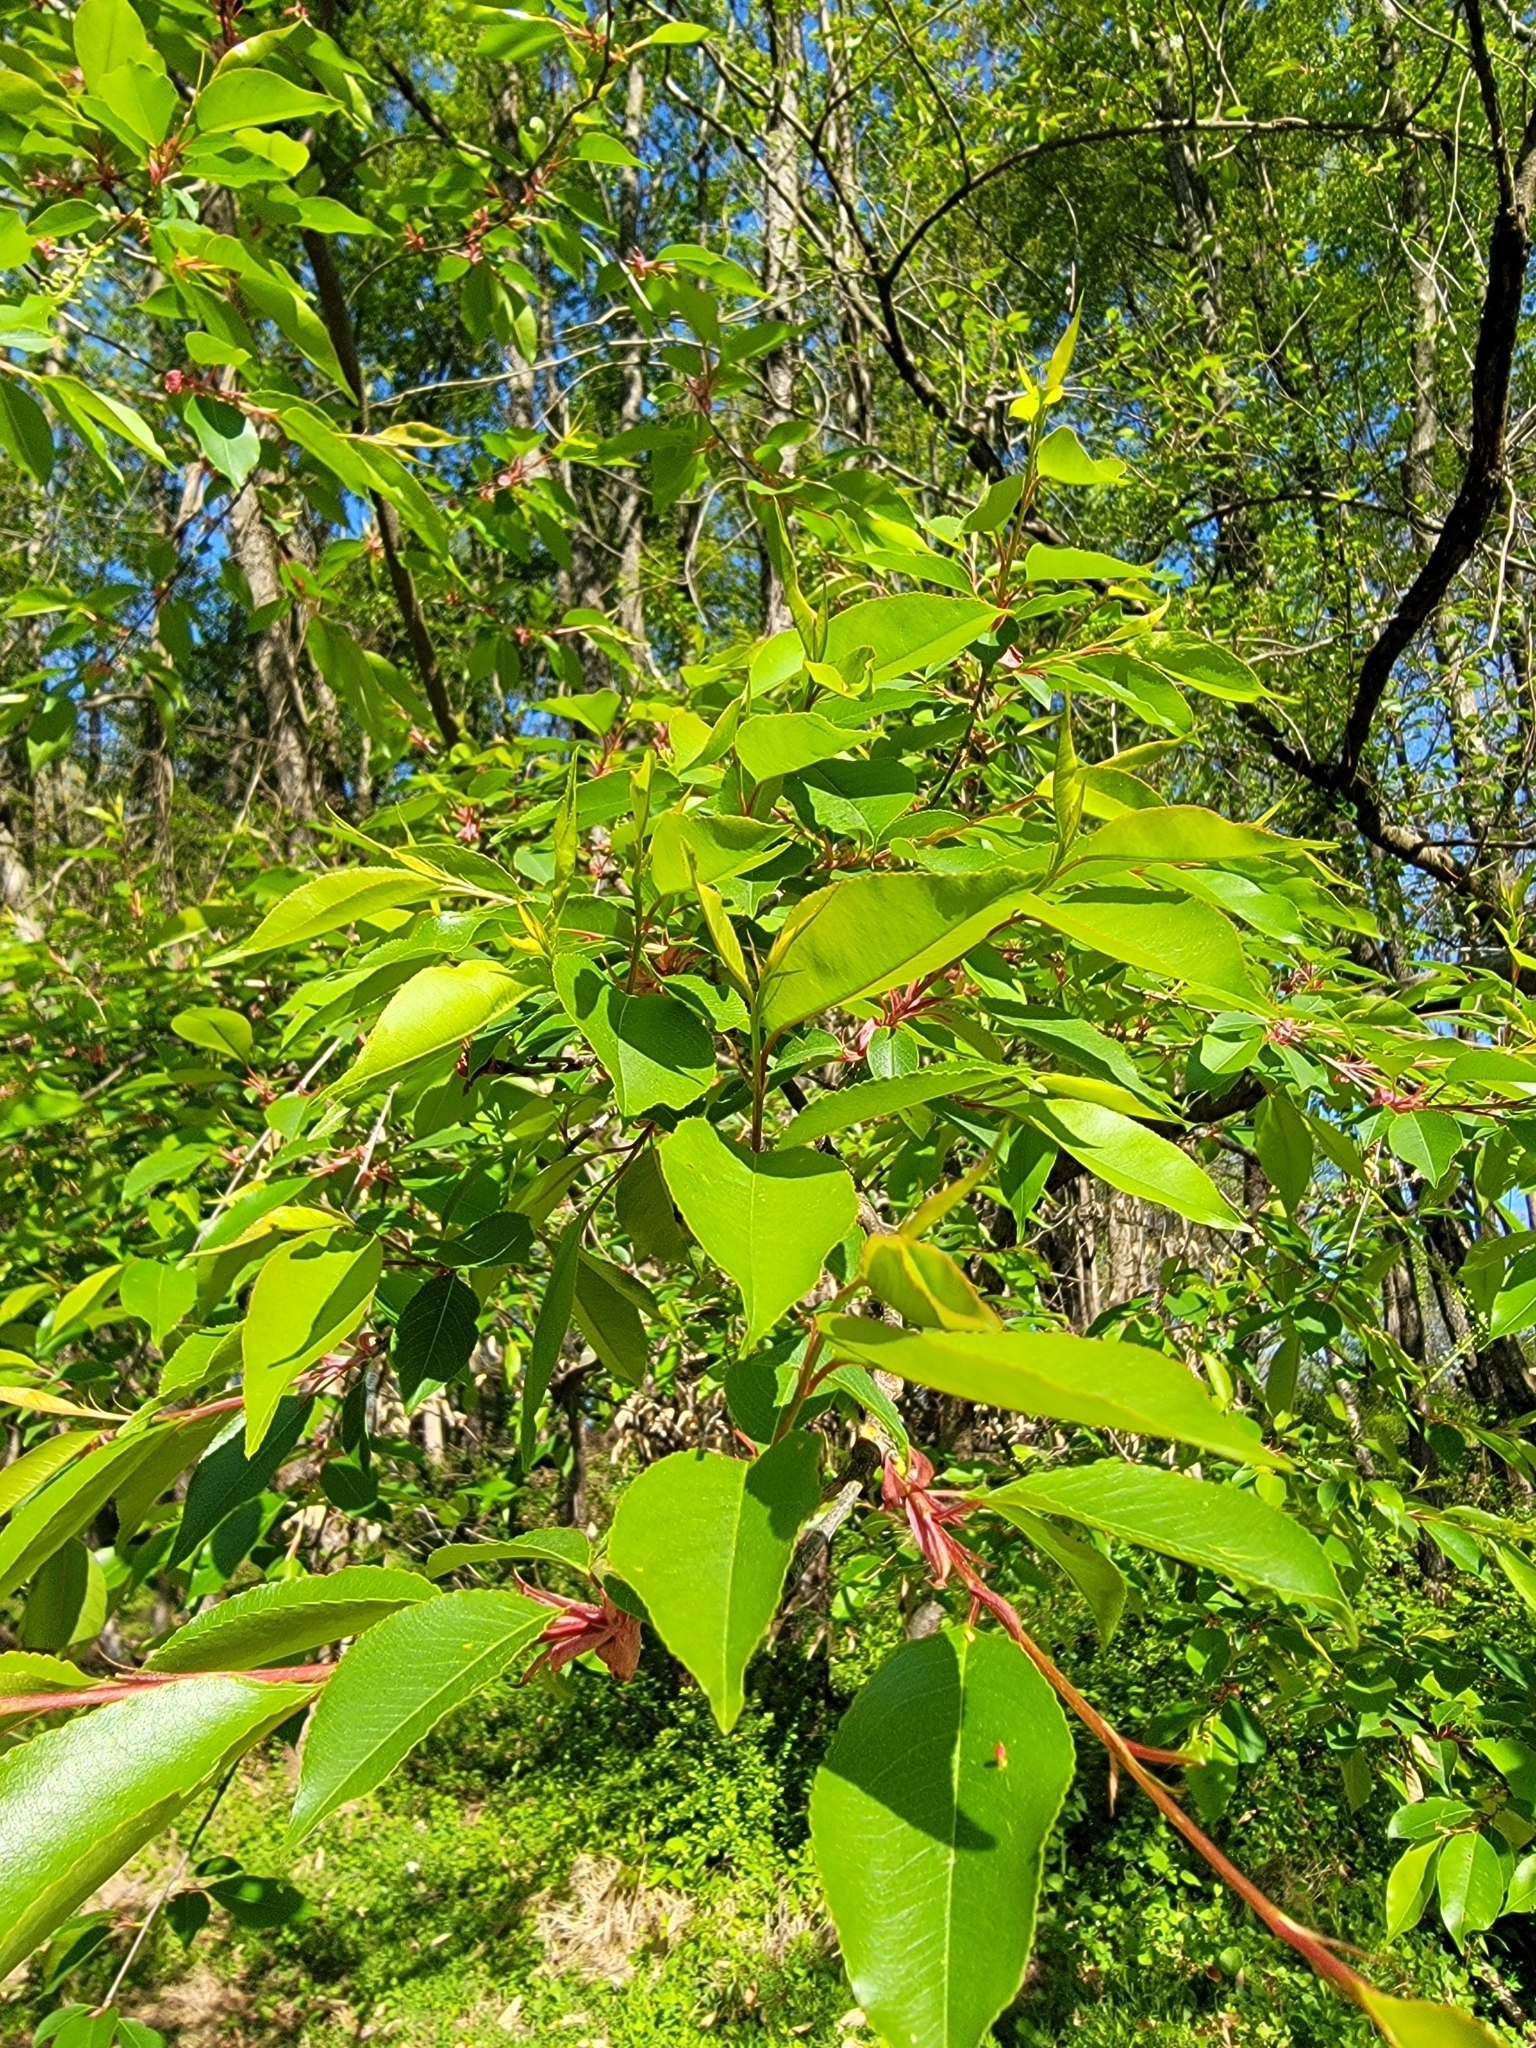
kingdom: Plantae
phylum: Tracheophyta
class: Magnoliopsida
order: Rosales
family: Rosaceae
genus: Prunus
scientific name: Prunus serotina
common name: Black cherry
